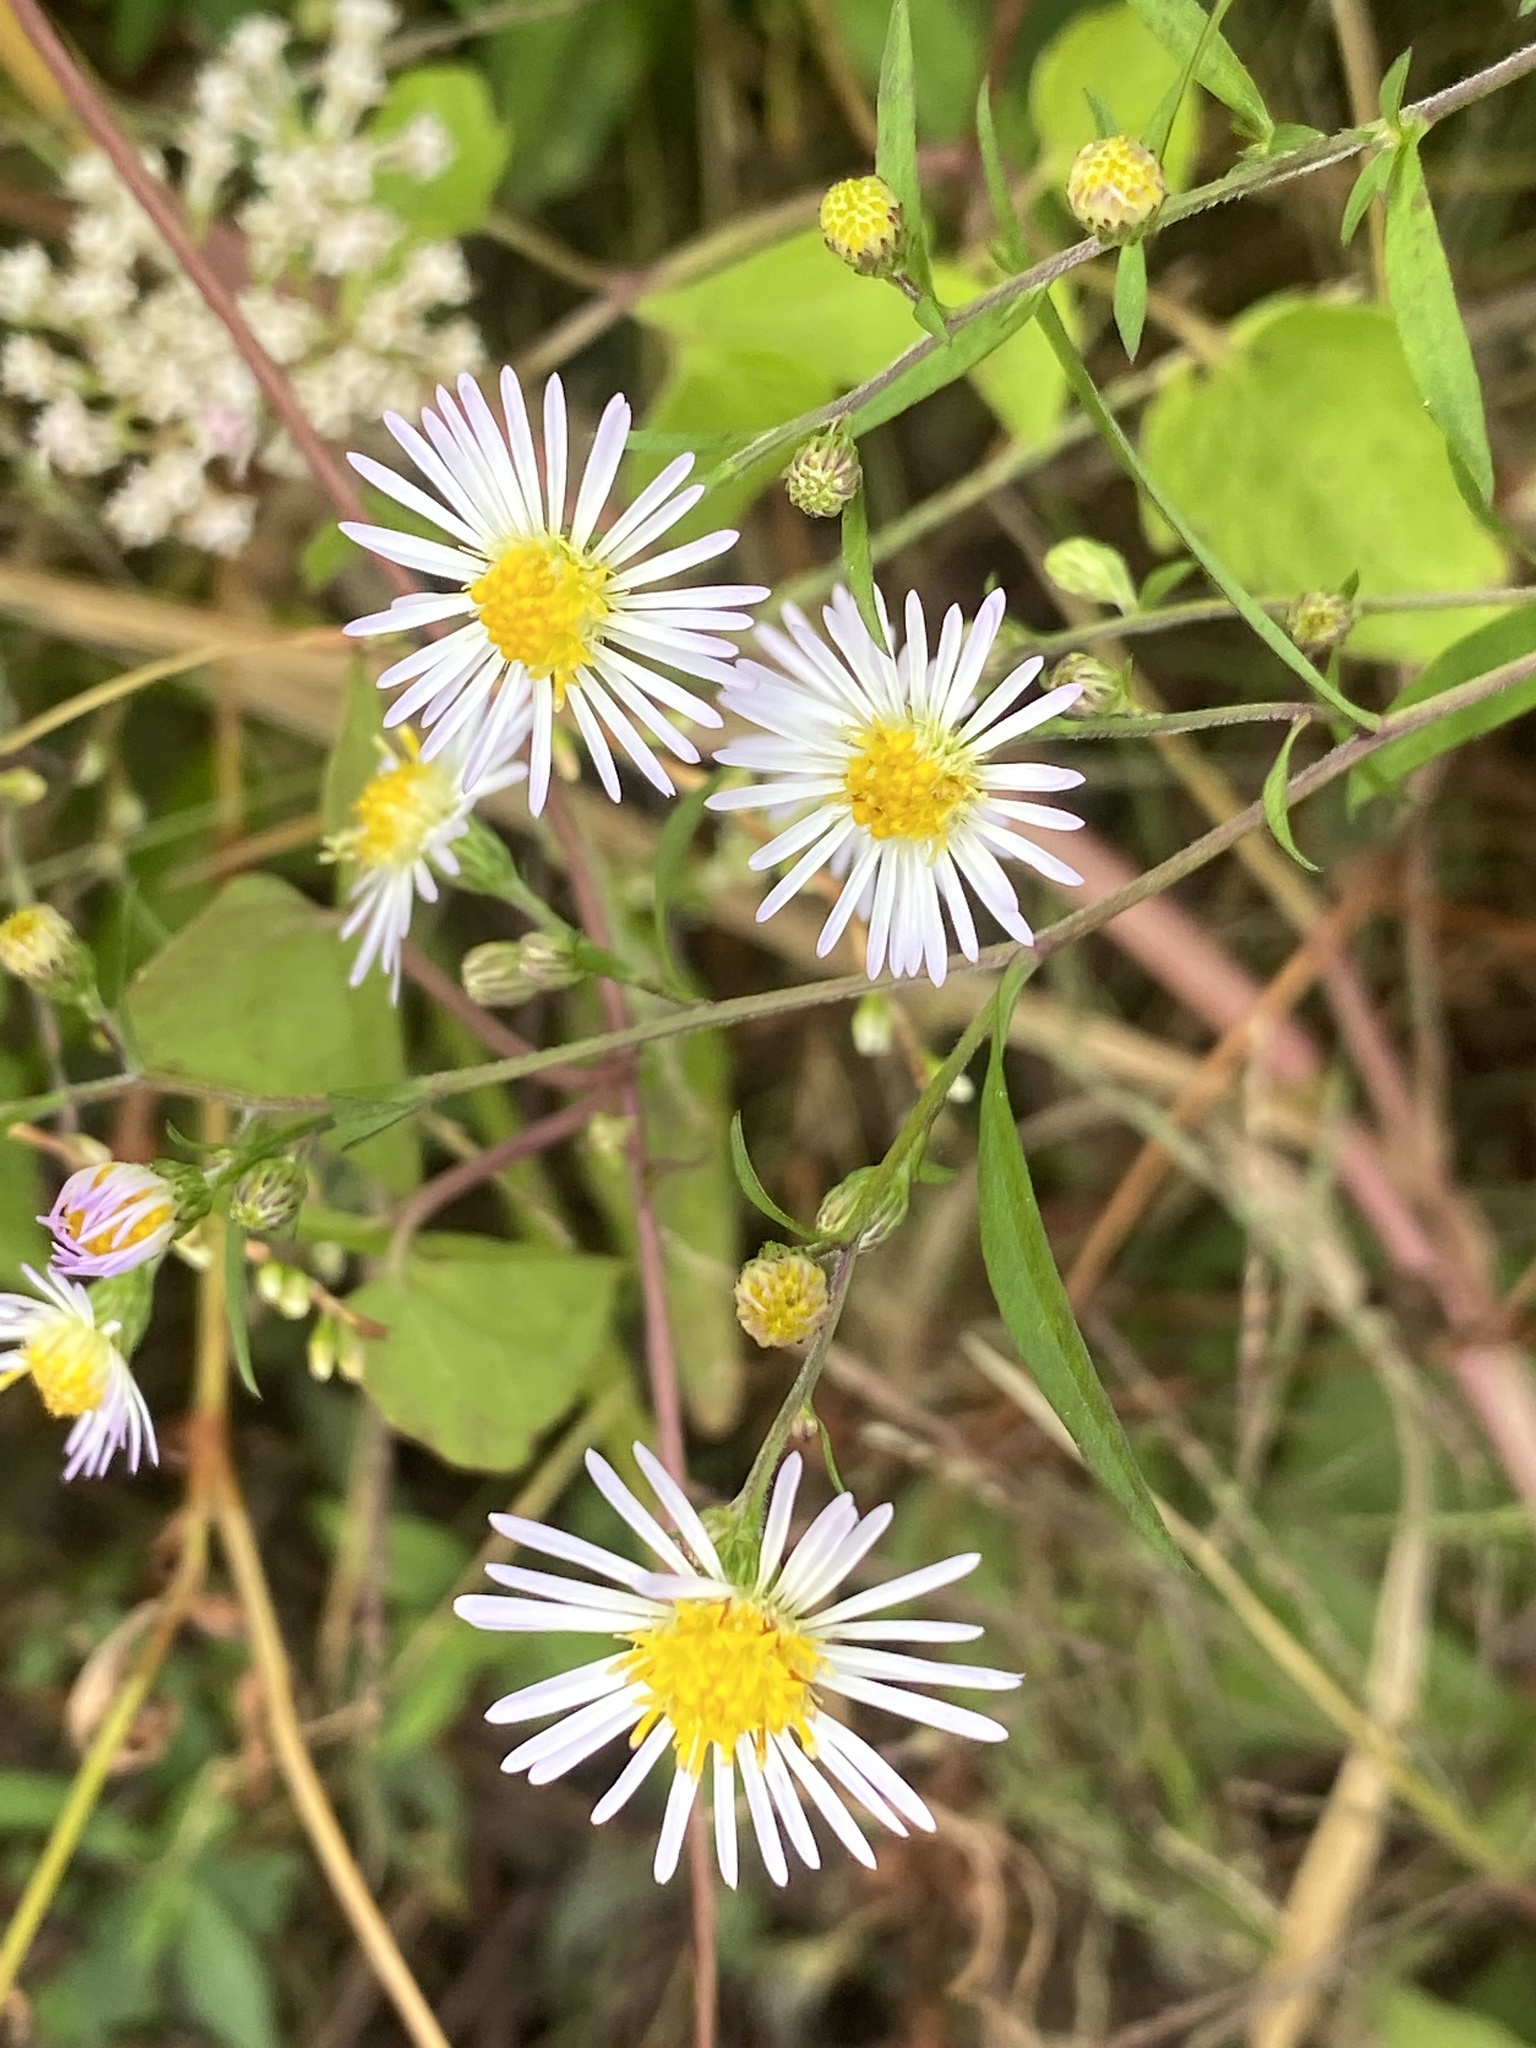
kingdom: Plantae
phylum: Tracheophyta
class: Magnoliopsida
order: Asterales
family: Asteraceae
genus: Symphyotrichum
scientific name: Symphyotrichum lanceolatum
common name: Panicled aster
